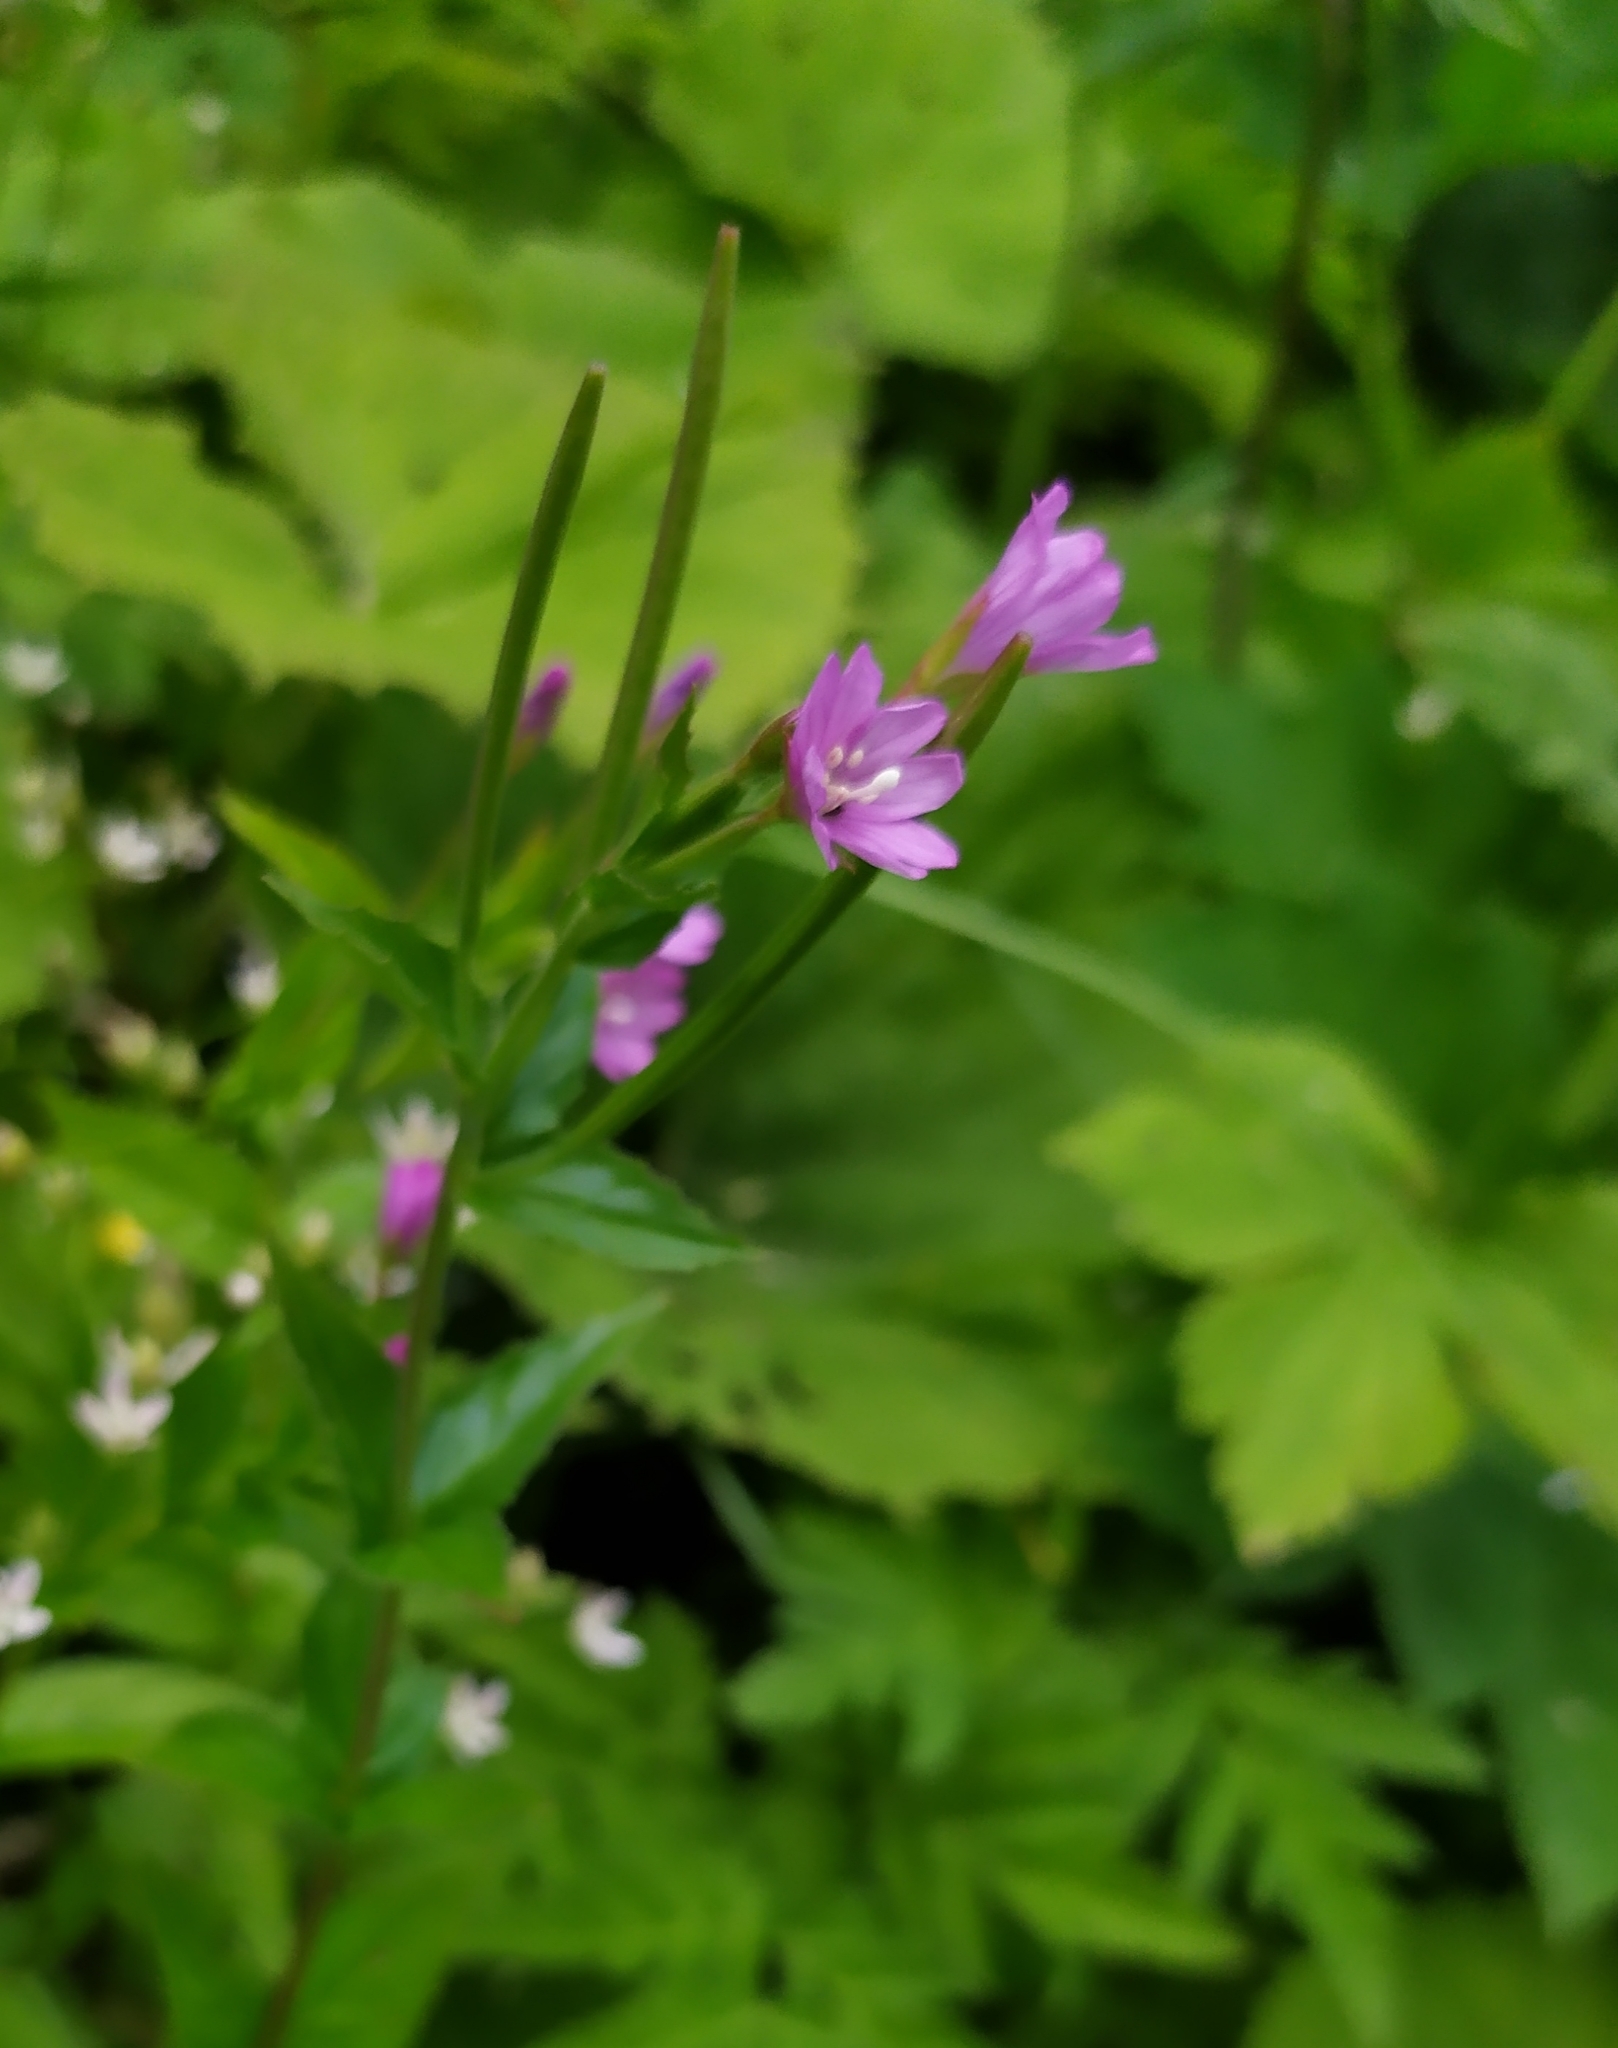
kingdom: Plantae
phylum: Tracheophyta
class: Magnoliopsida
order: Myrtales
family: Onagraceae
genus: Epilobium
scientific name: Epilobium alpestre
